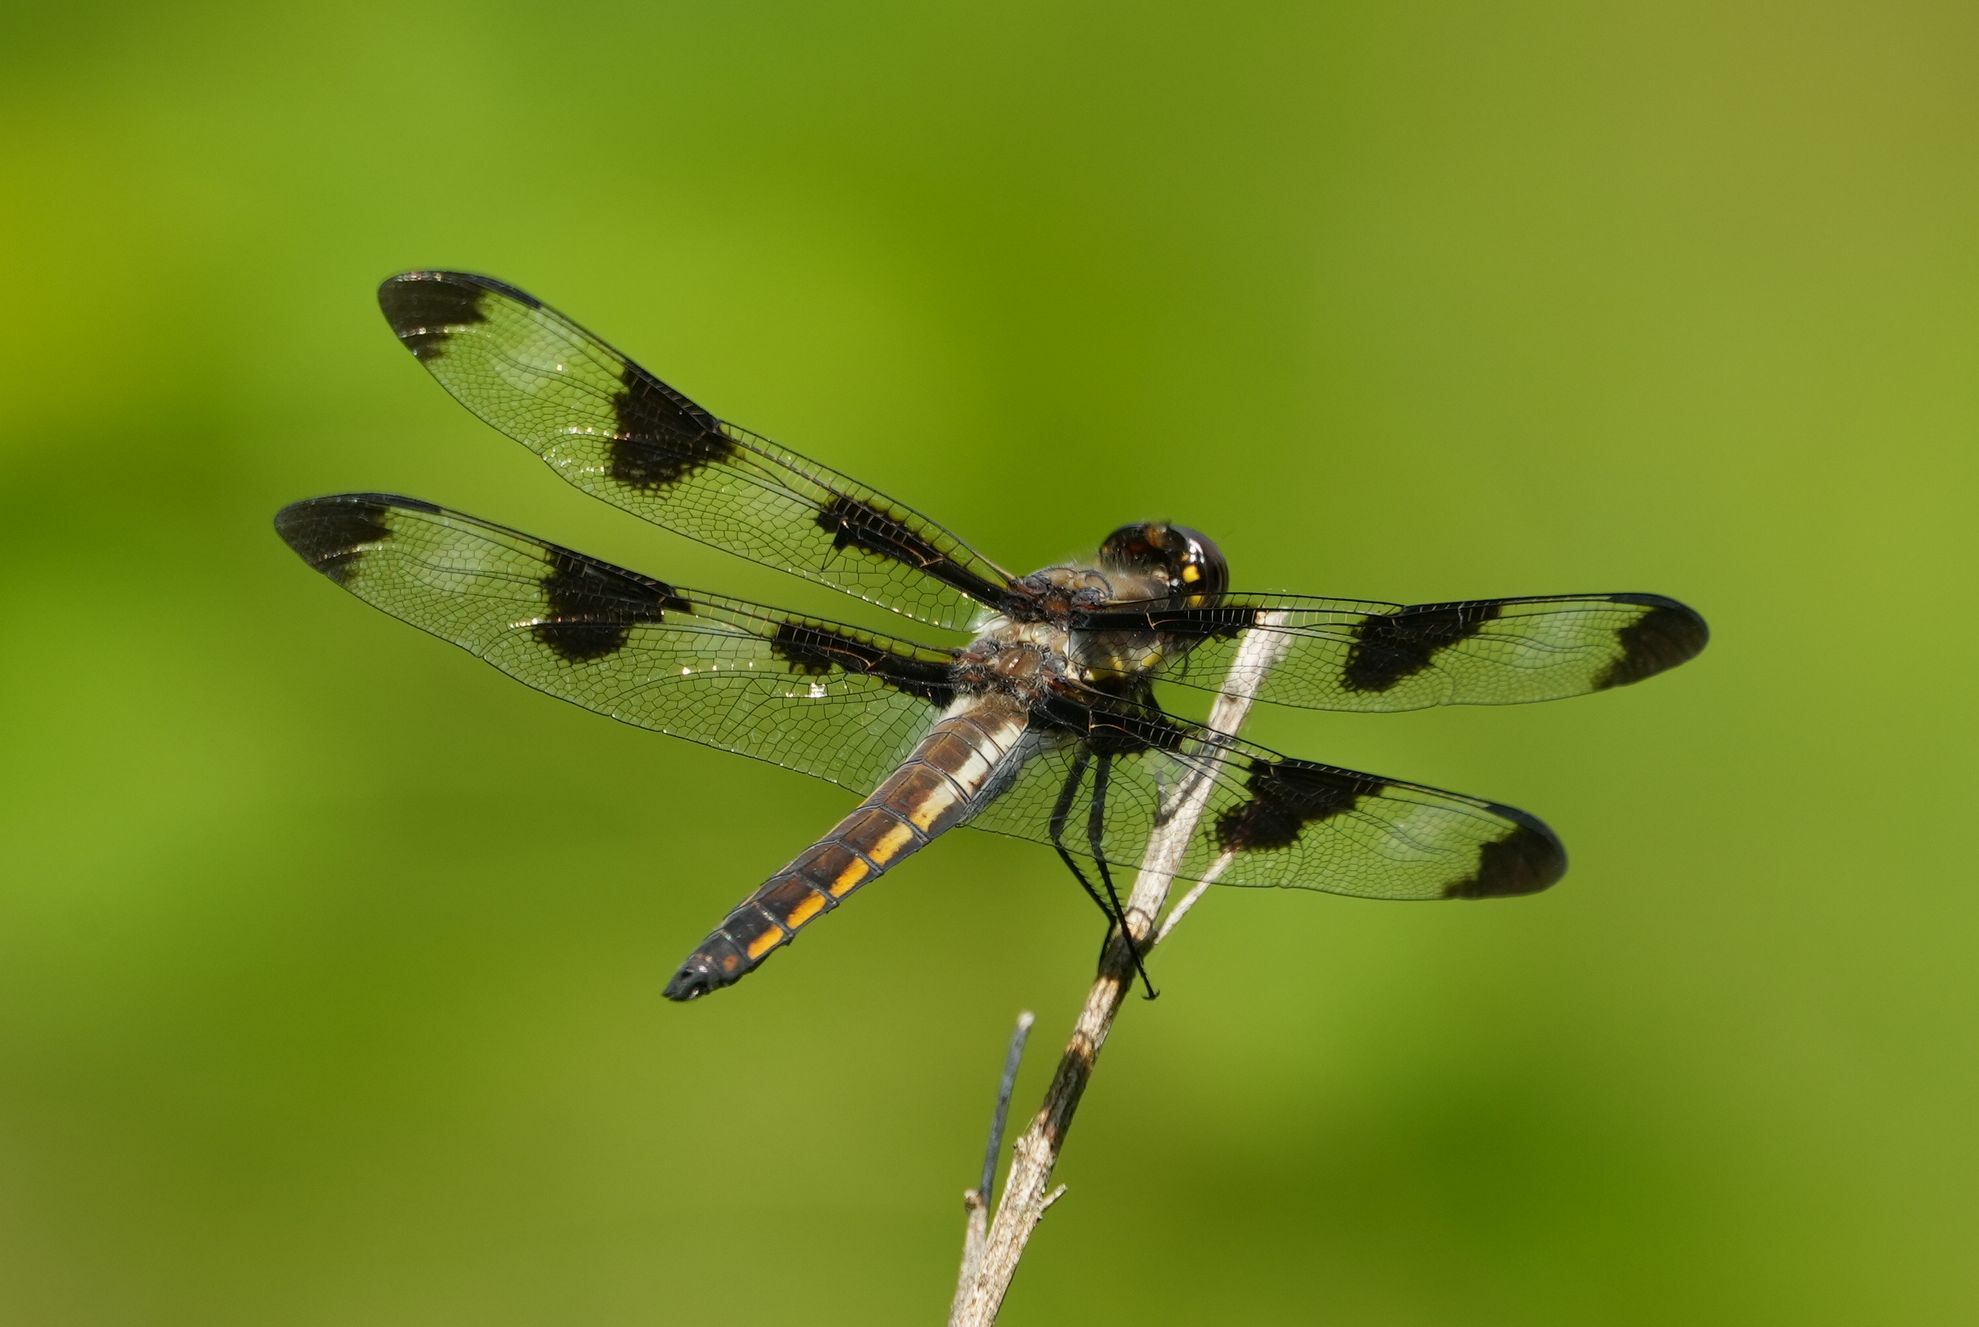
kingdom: Animalia
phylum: Arthropoda
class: Insecta
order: Odonata
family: Libellulidae
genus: Libellula
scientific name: Libellula pulchella
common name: Twelve-spotted skimmer
